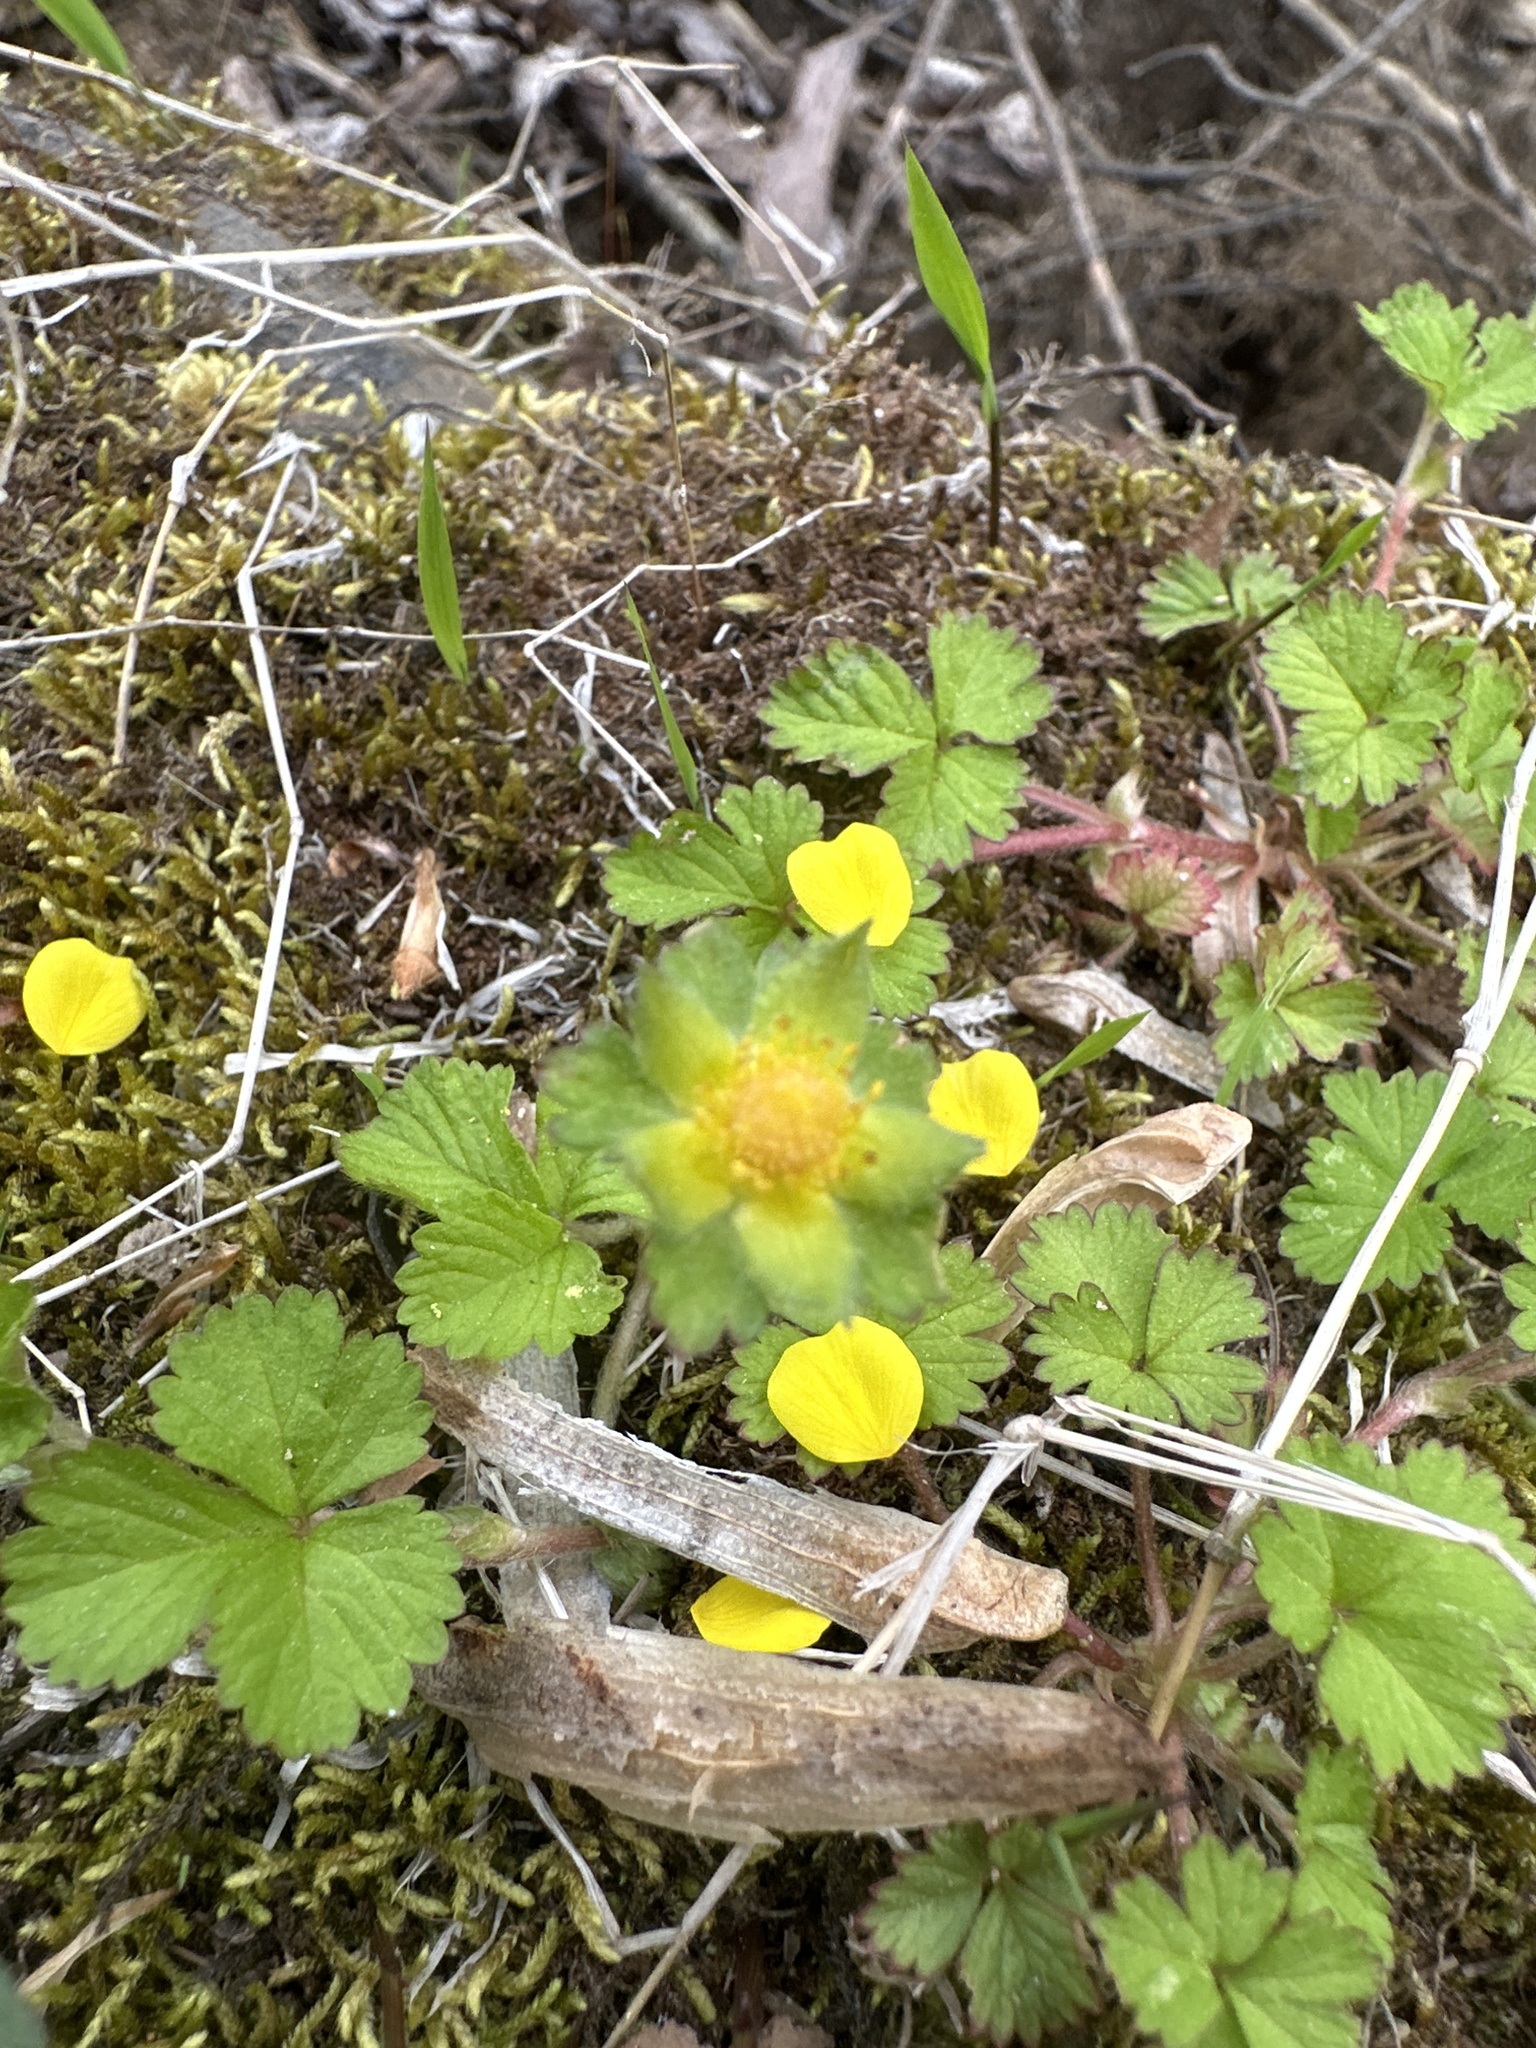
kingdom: Plantae
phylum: Tracheophyta
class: Magnoliopsida
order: Rosales
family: Rosaceae
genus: Potentilla
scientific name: Potentilla indica
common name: Yellow-flowered strawberry
